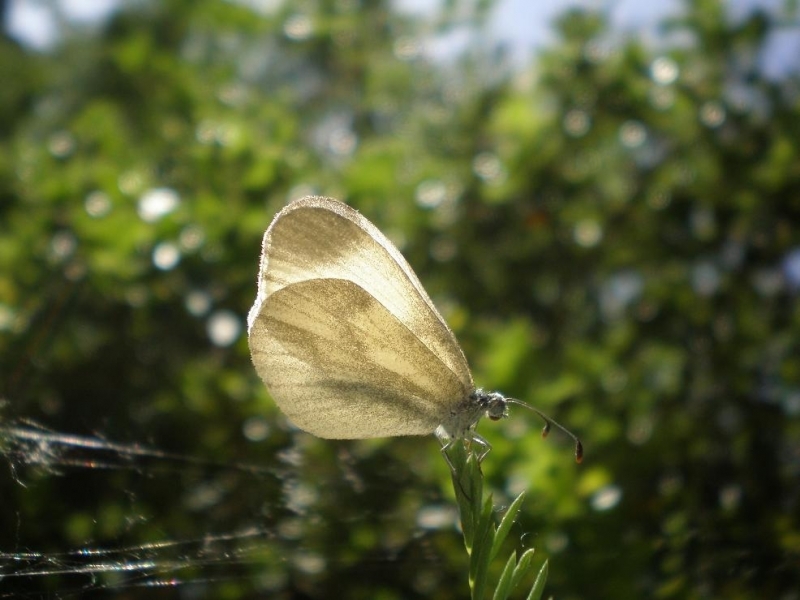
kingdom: Animalia
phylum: Arthropoda
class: Insecta
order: Lepidoptera
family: Pieridae
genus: Leptidea
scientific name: Leptidea
